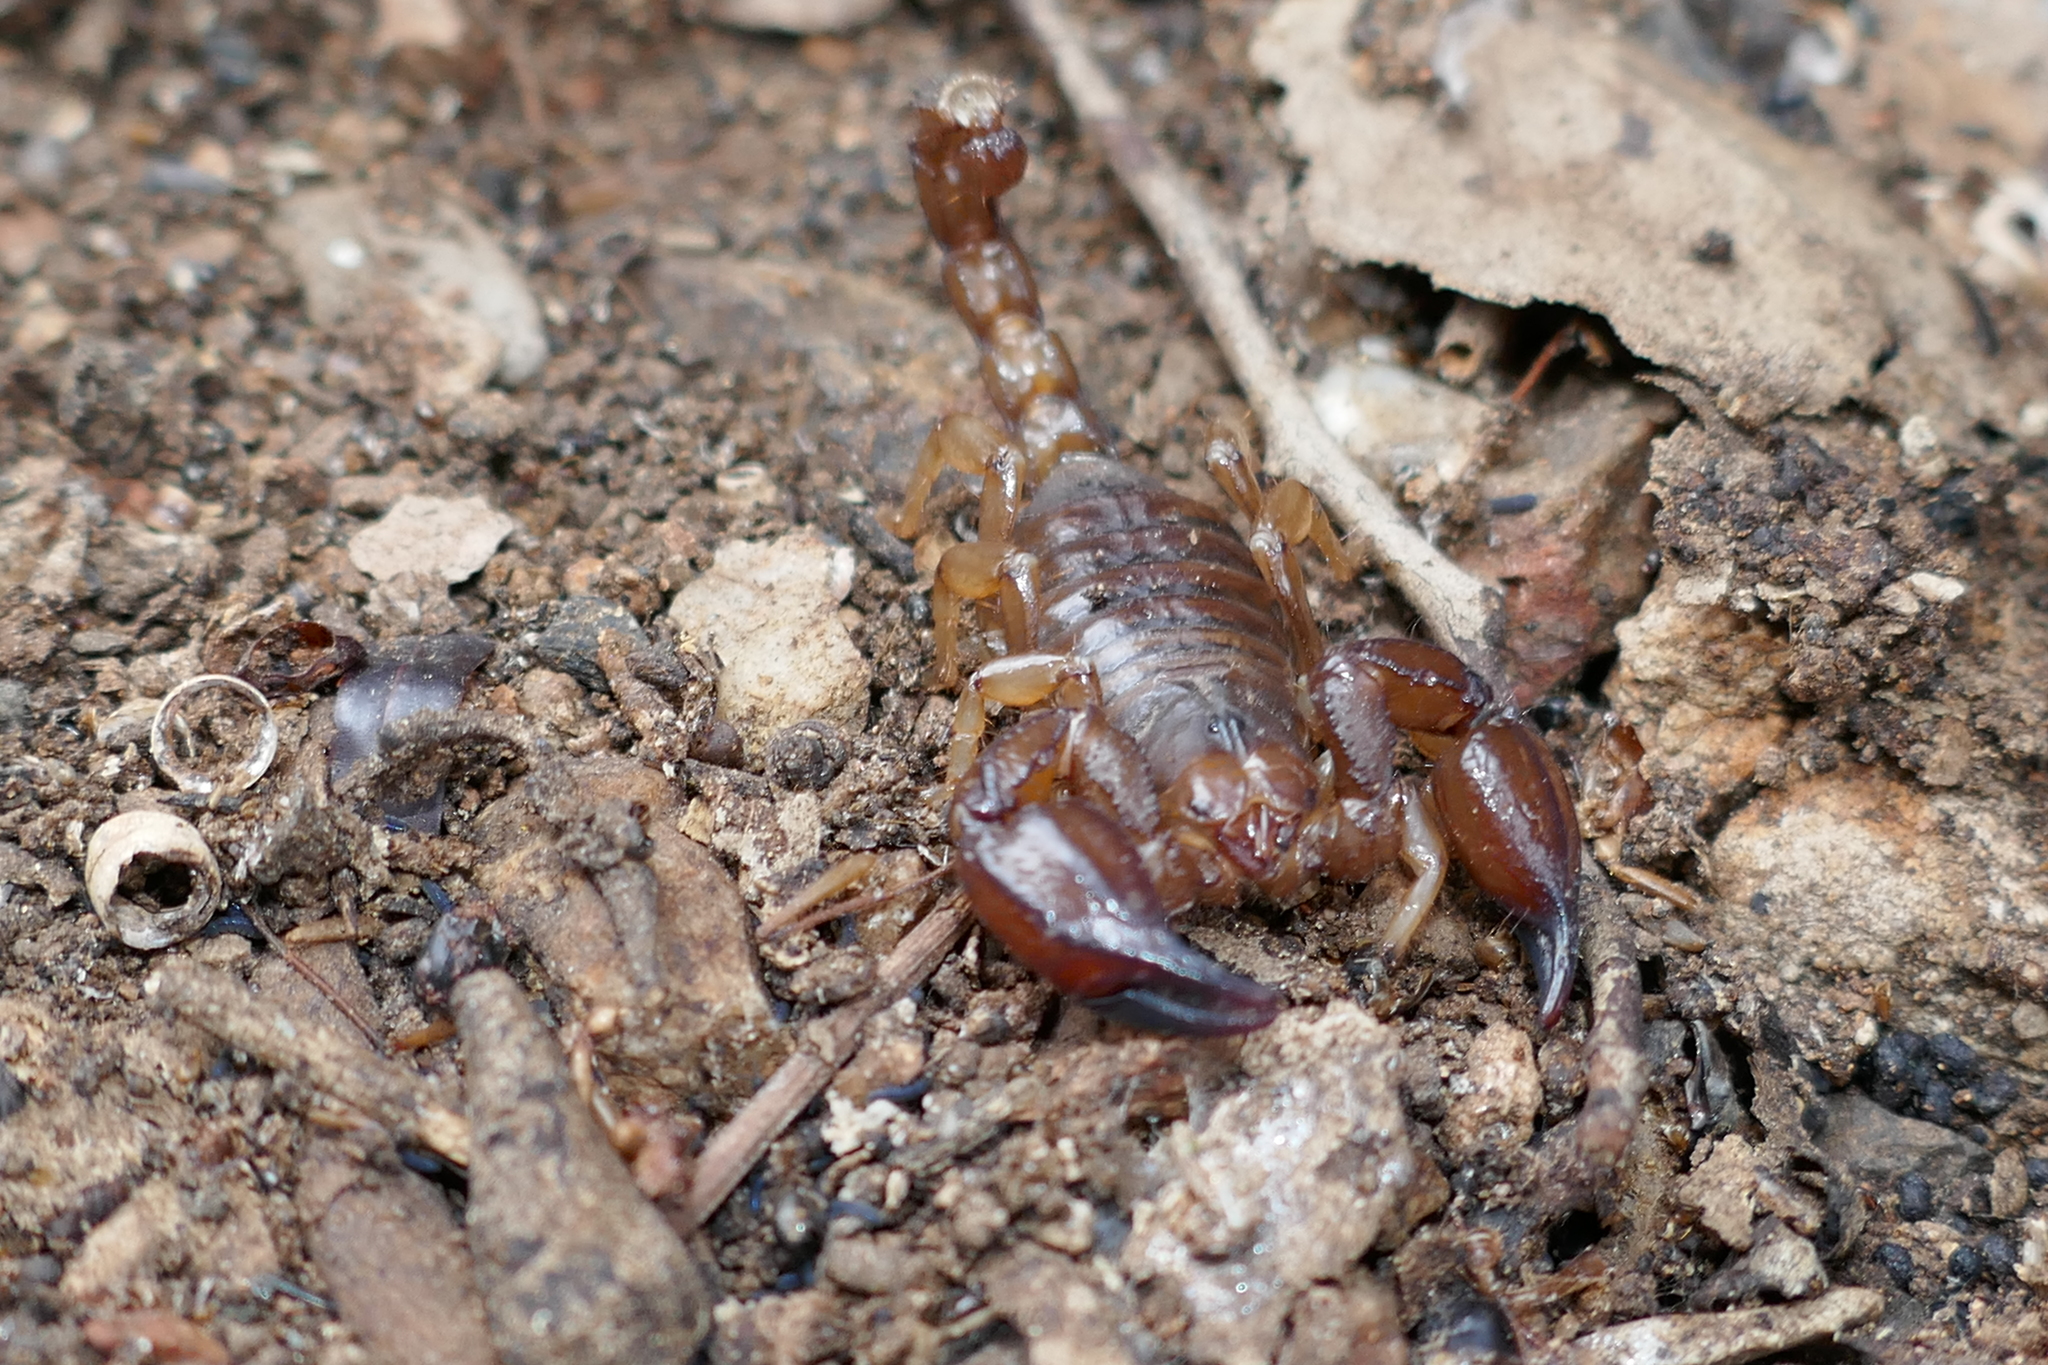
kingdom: Animalia
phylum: Arthropoda
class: Arachnida
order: Scorpiones
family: Scorpionidae
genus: Urodacus
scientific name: Urodacus manicatus
